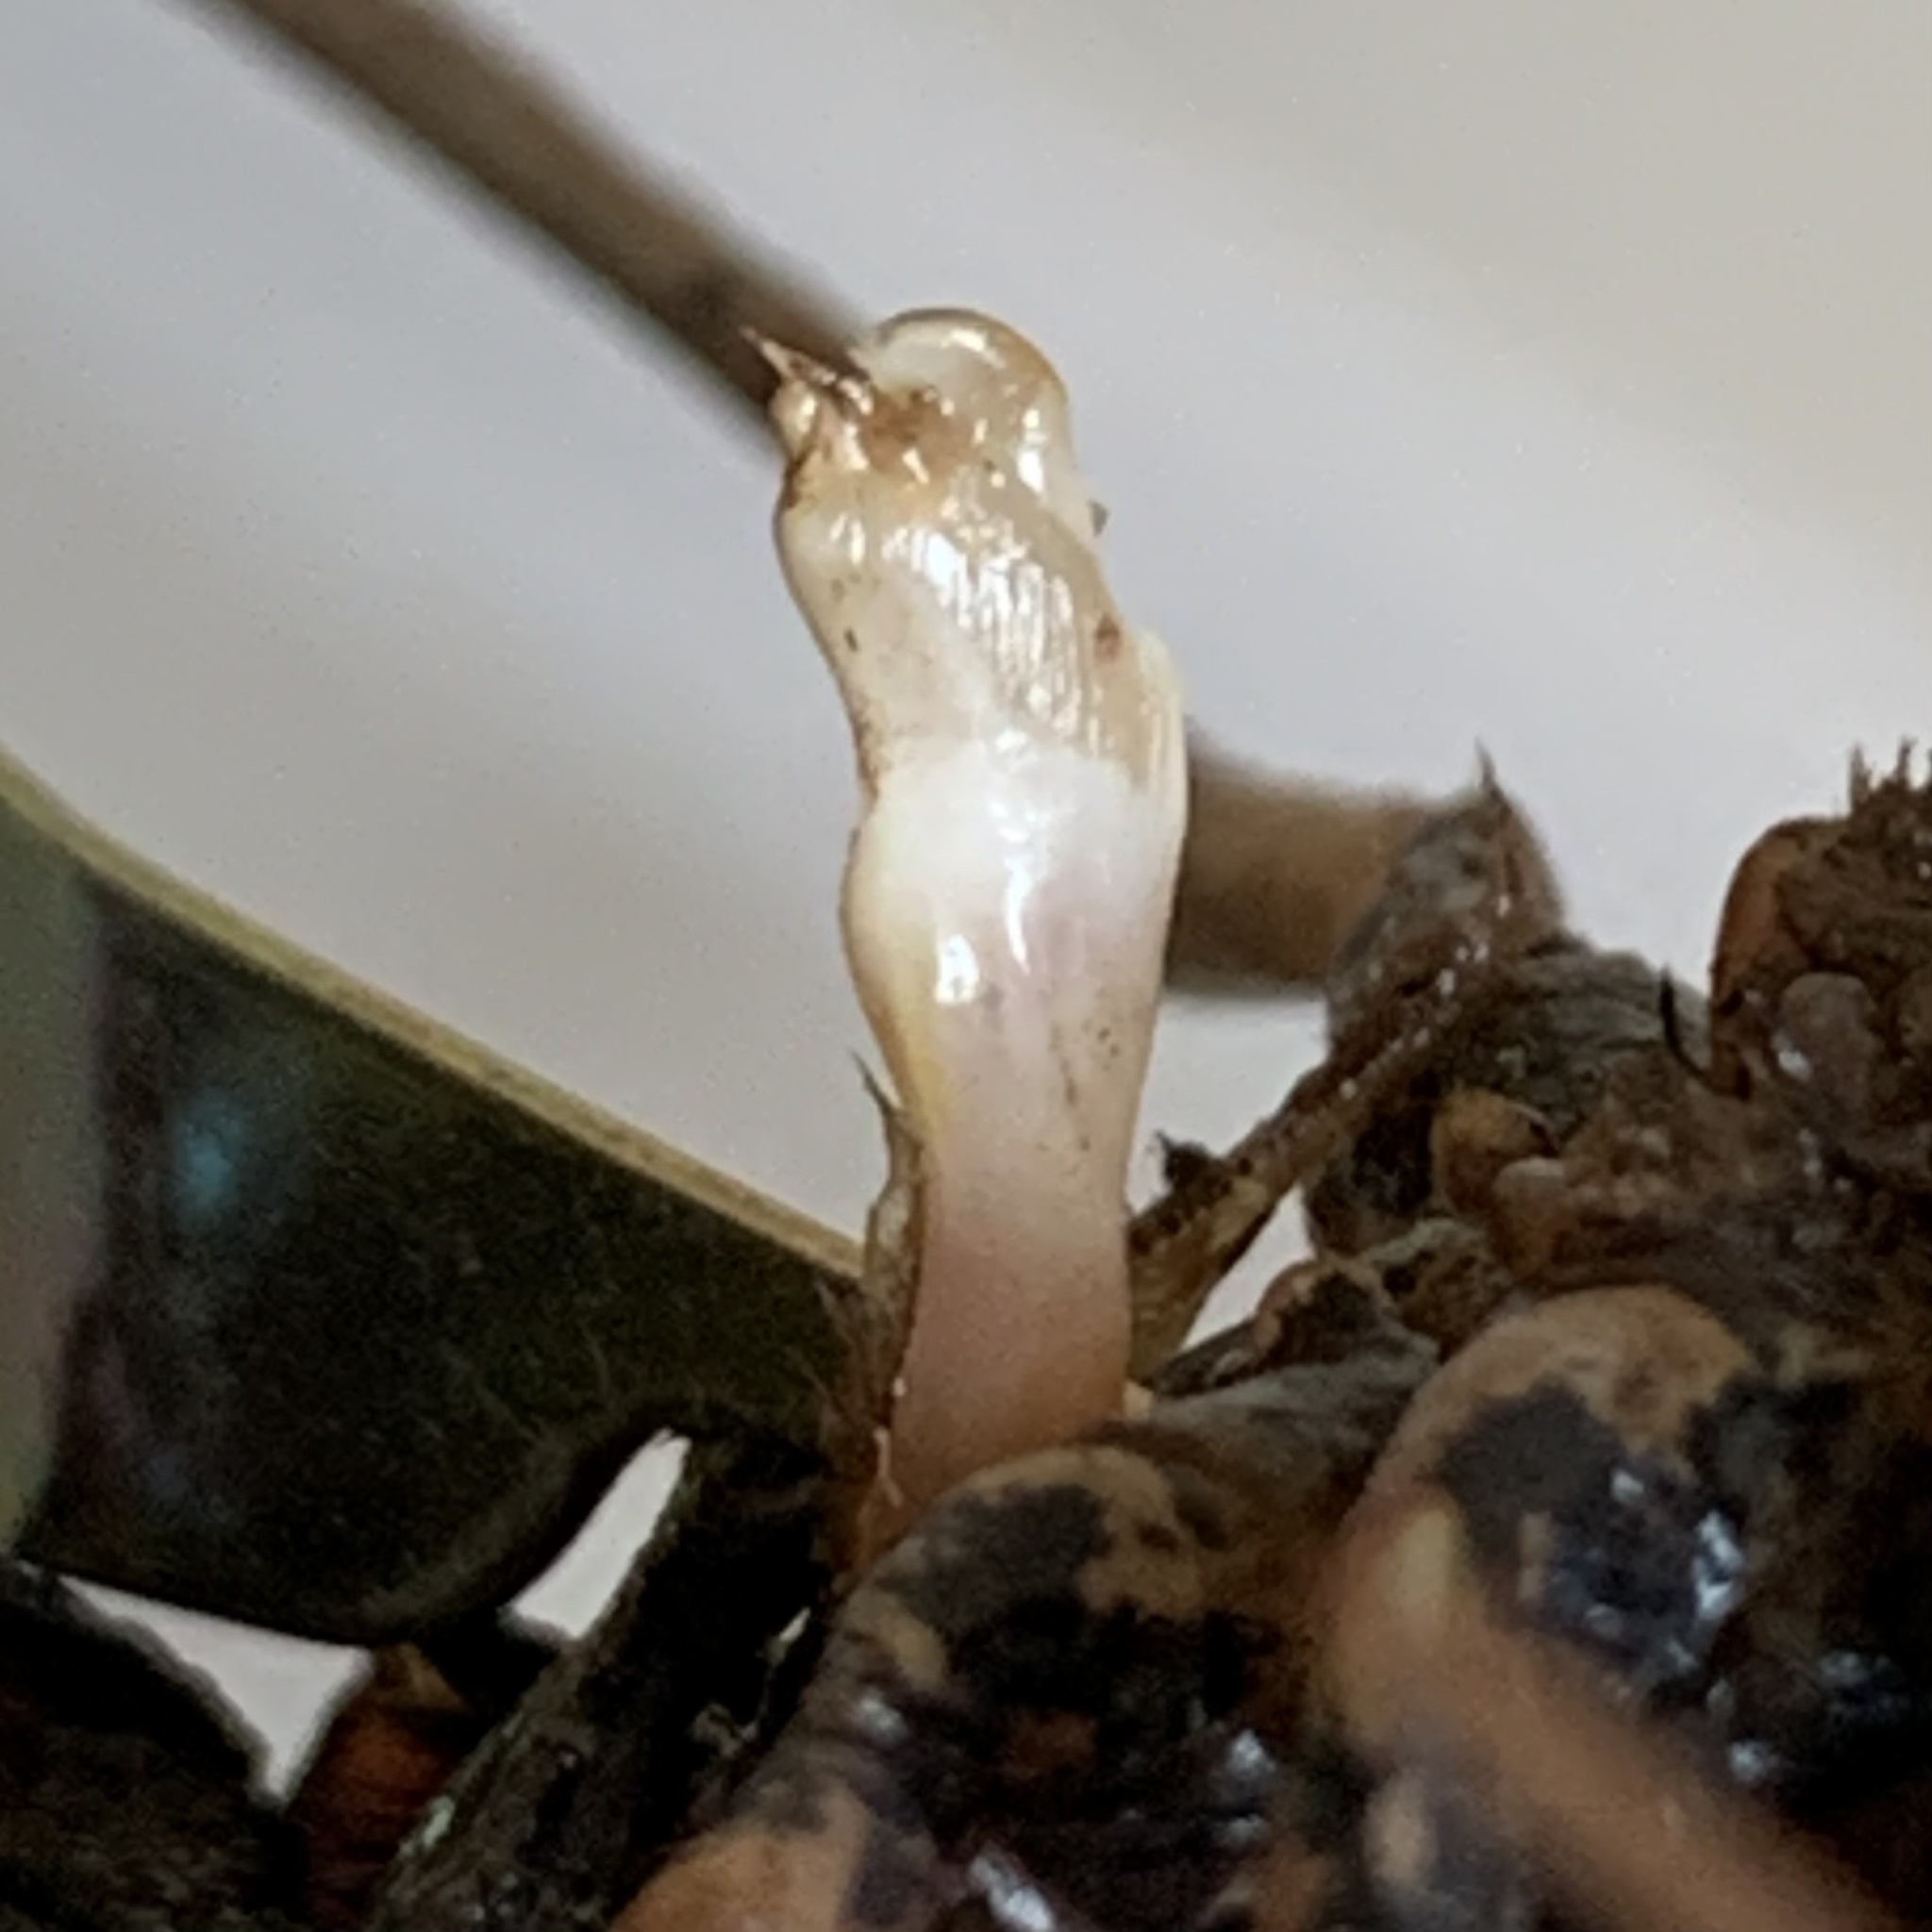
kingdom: Animalia
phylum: Arthropoda
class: Malacostraca
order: Decapoda
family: Cambaridae
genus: Procambarus
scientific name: Procambarus clarkii
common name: Red swamp crayfish
